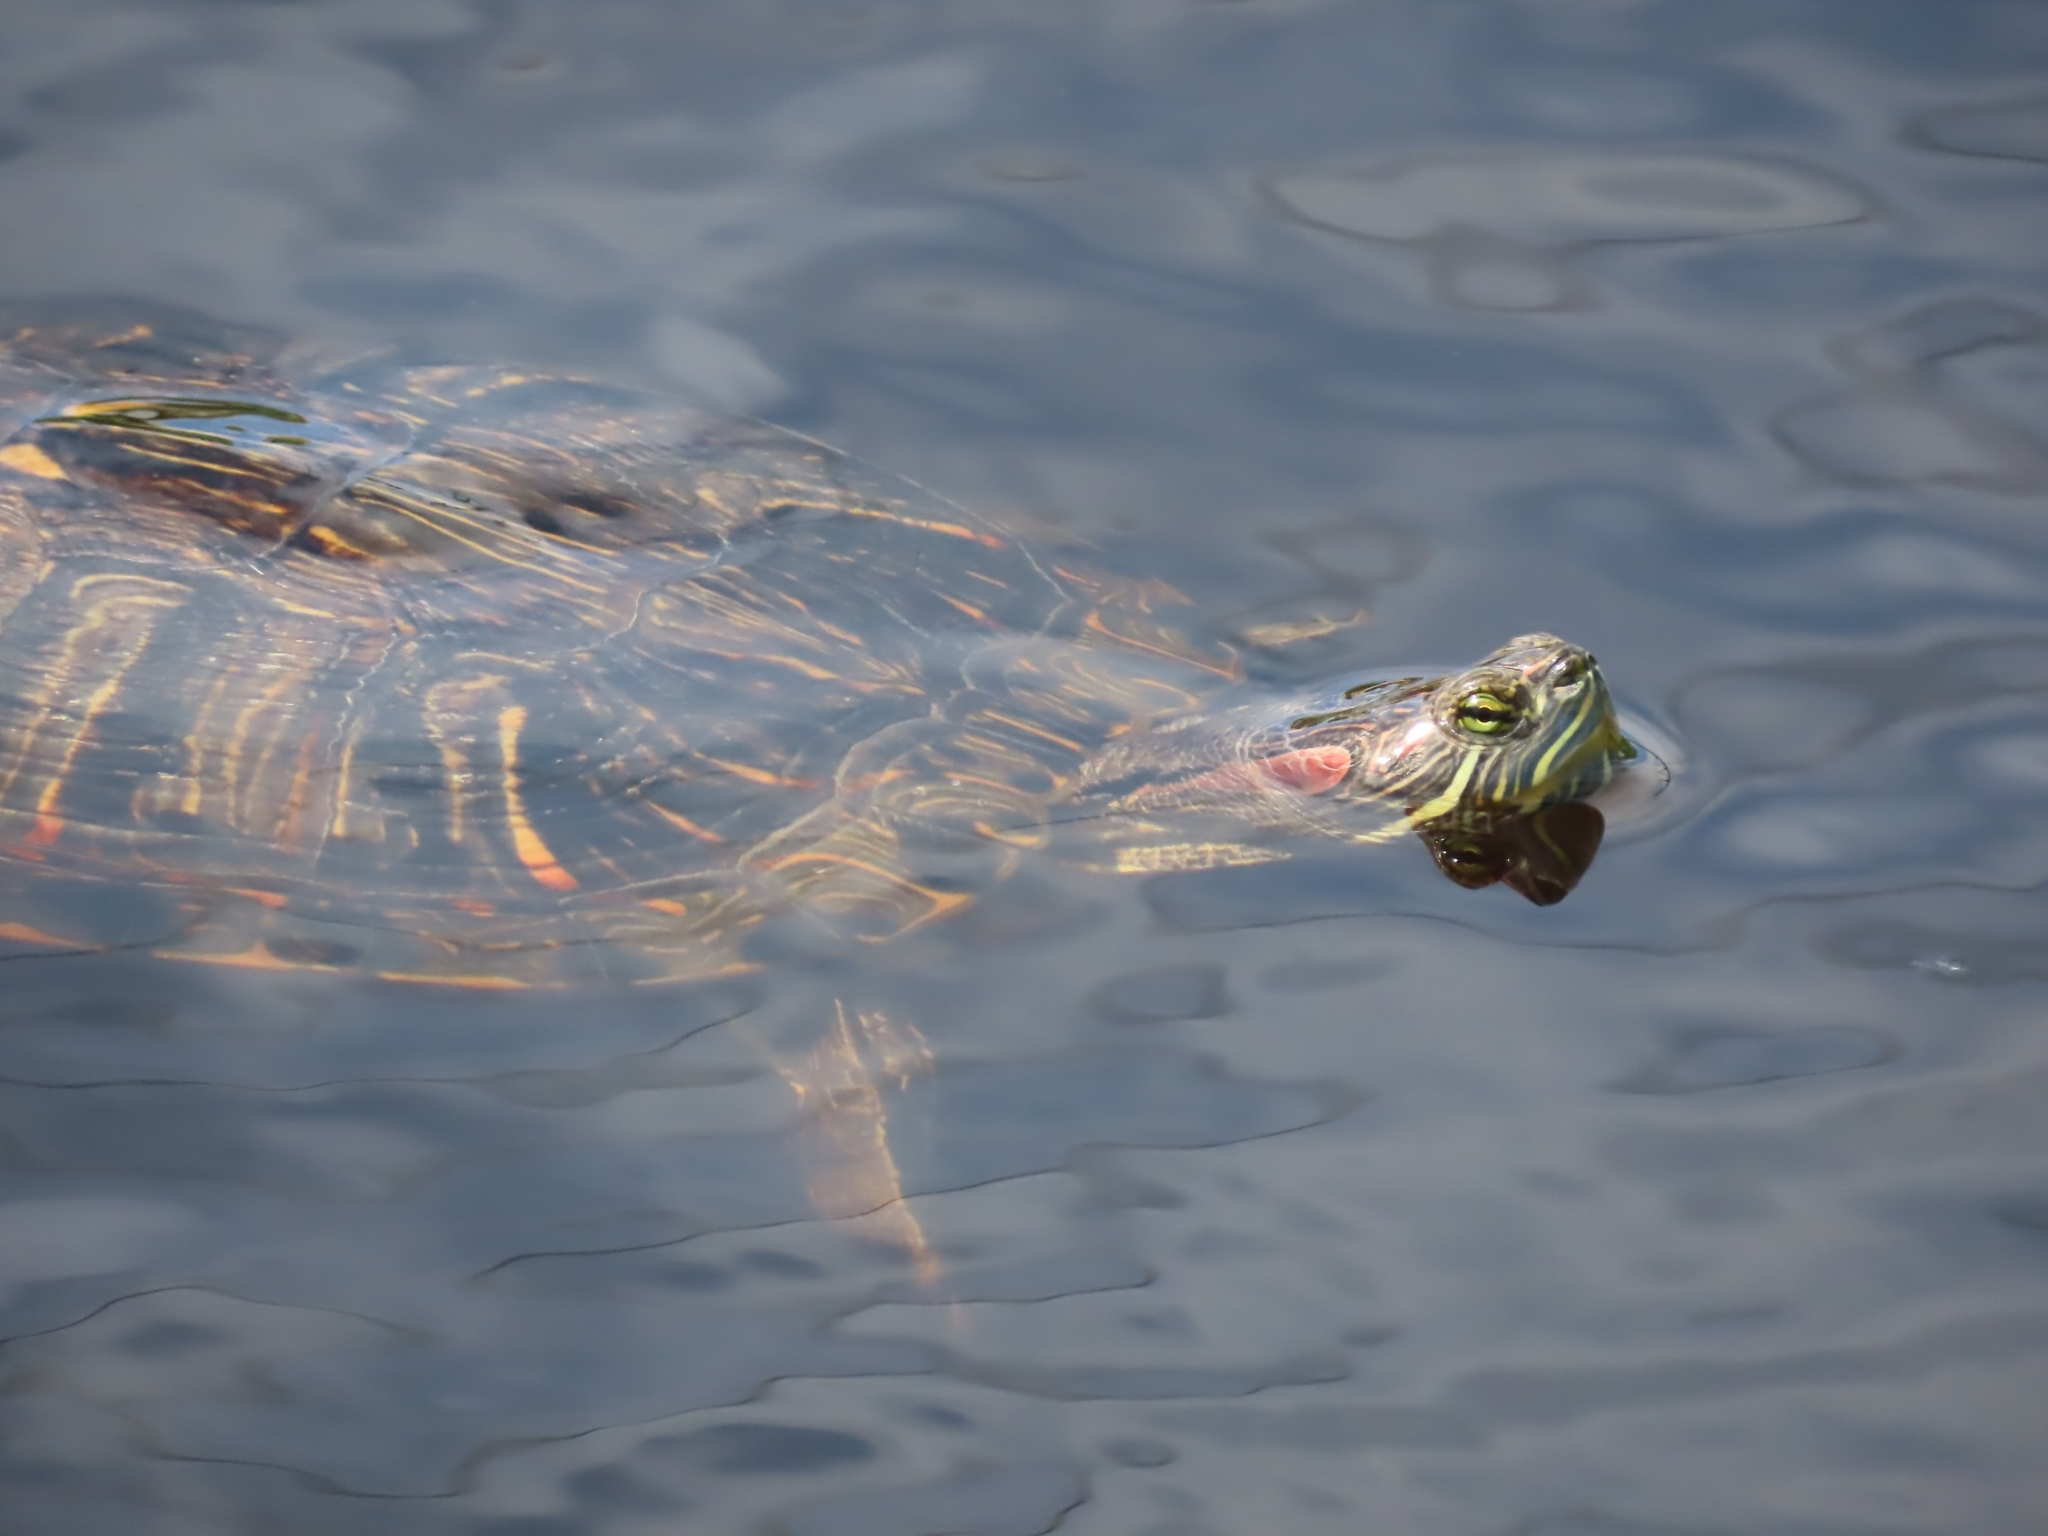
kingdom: Animalia
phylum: Chordata
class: Testudines
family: Emydidae
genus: Trachemys
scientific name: Trachemys scripta
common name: Slider
